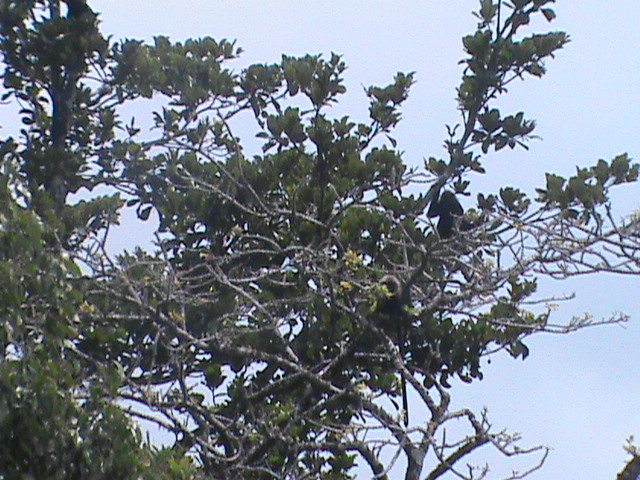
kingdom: Animalia
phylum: Chordata
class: Mammalia
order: Primates
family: Cercopithecidae
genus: Semnopithecus
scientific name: Semnopithecus johnii
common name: Nilgiri langur
